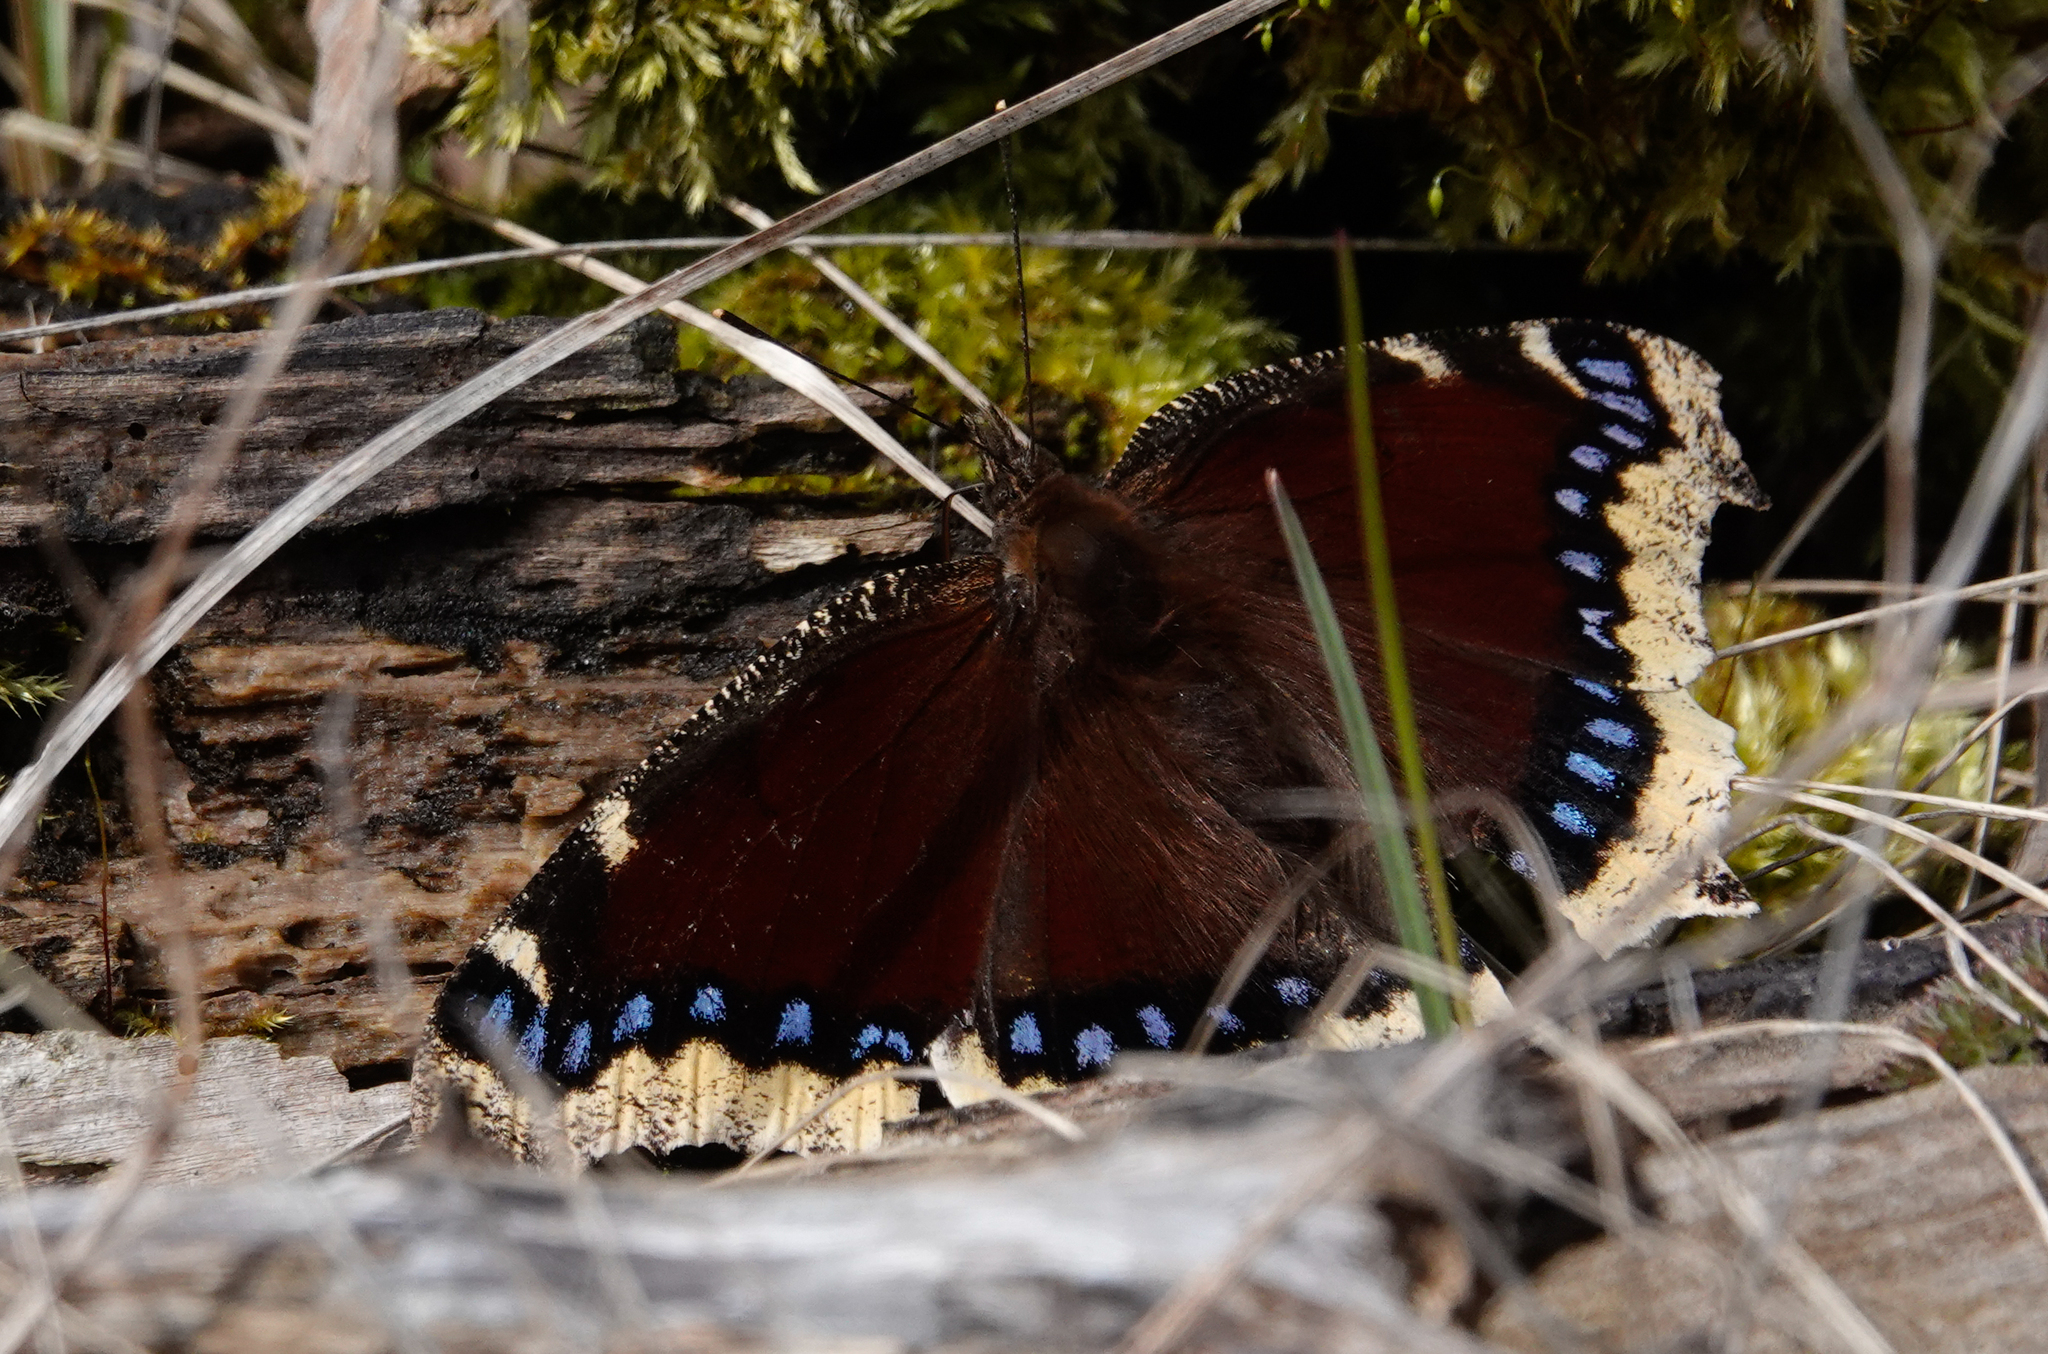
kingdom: Animalia
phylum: Arthropoda
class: Insecta
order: Lepidoptera
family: Nymphalidae
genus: Nymphalis
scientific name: Nymphalis antiopa
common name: Camberwell beauty
